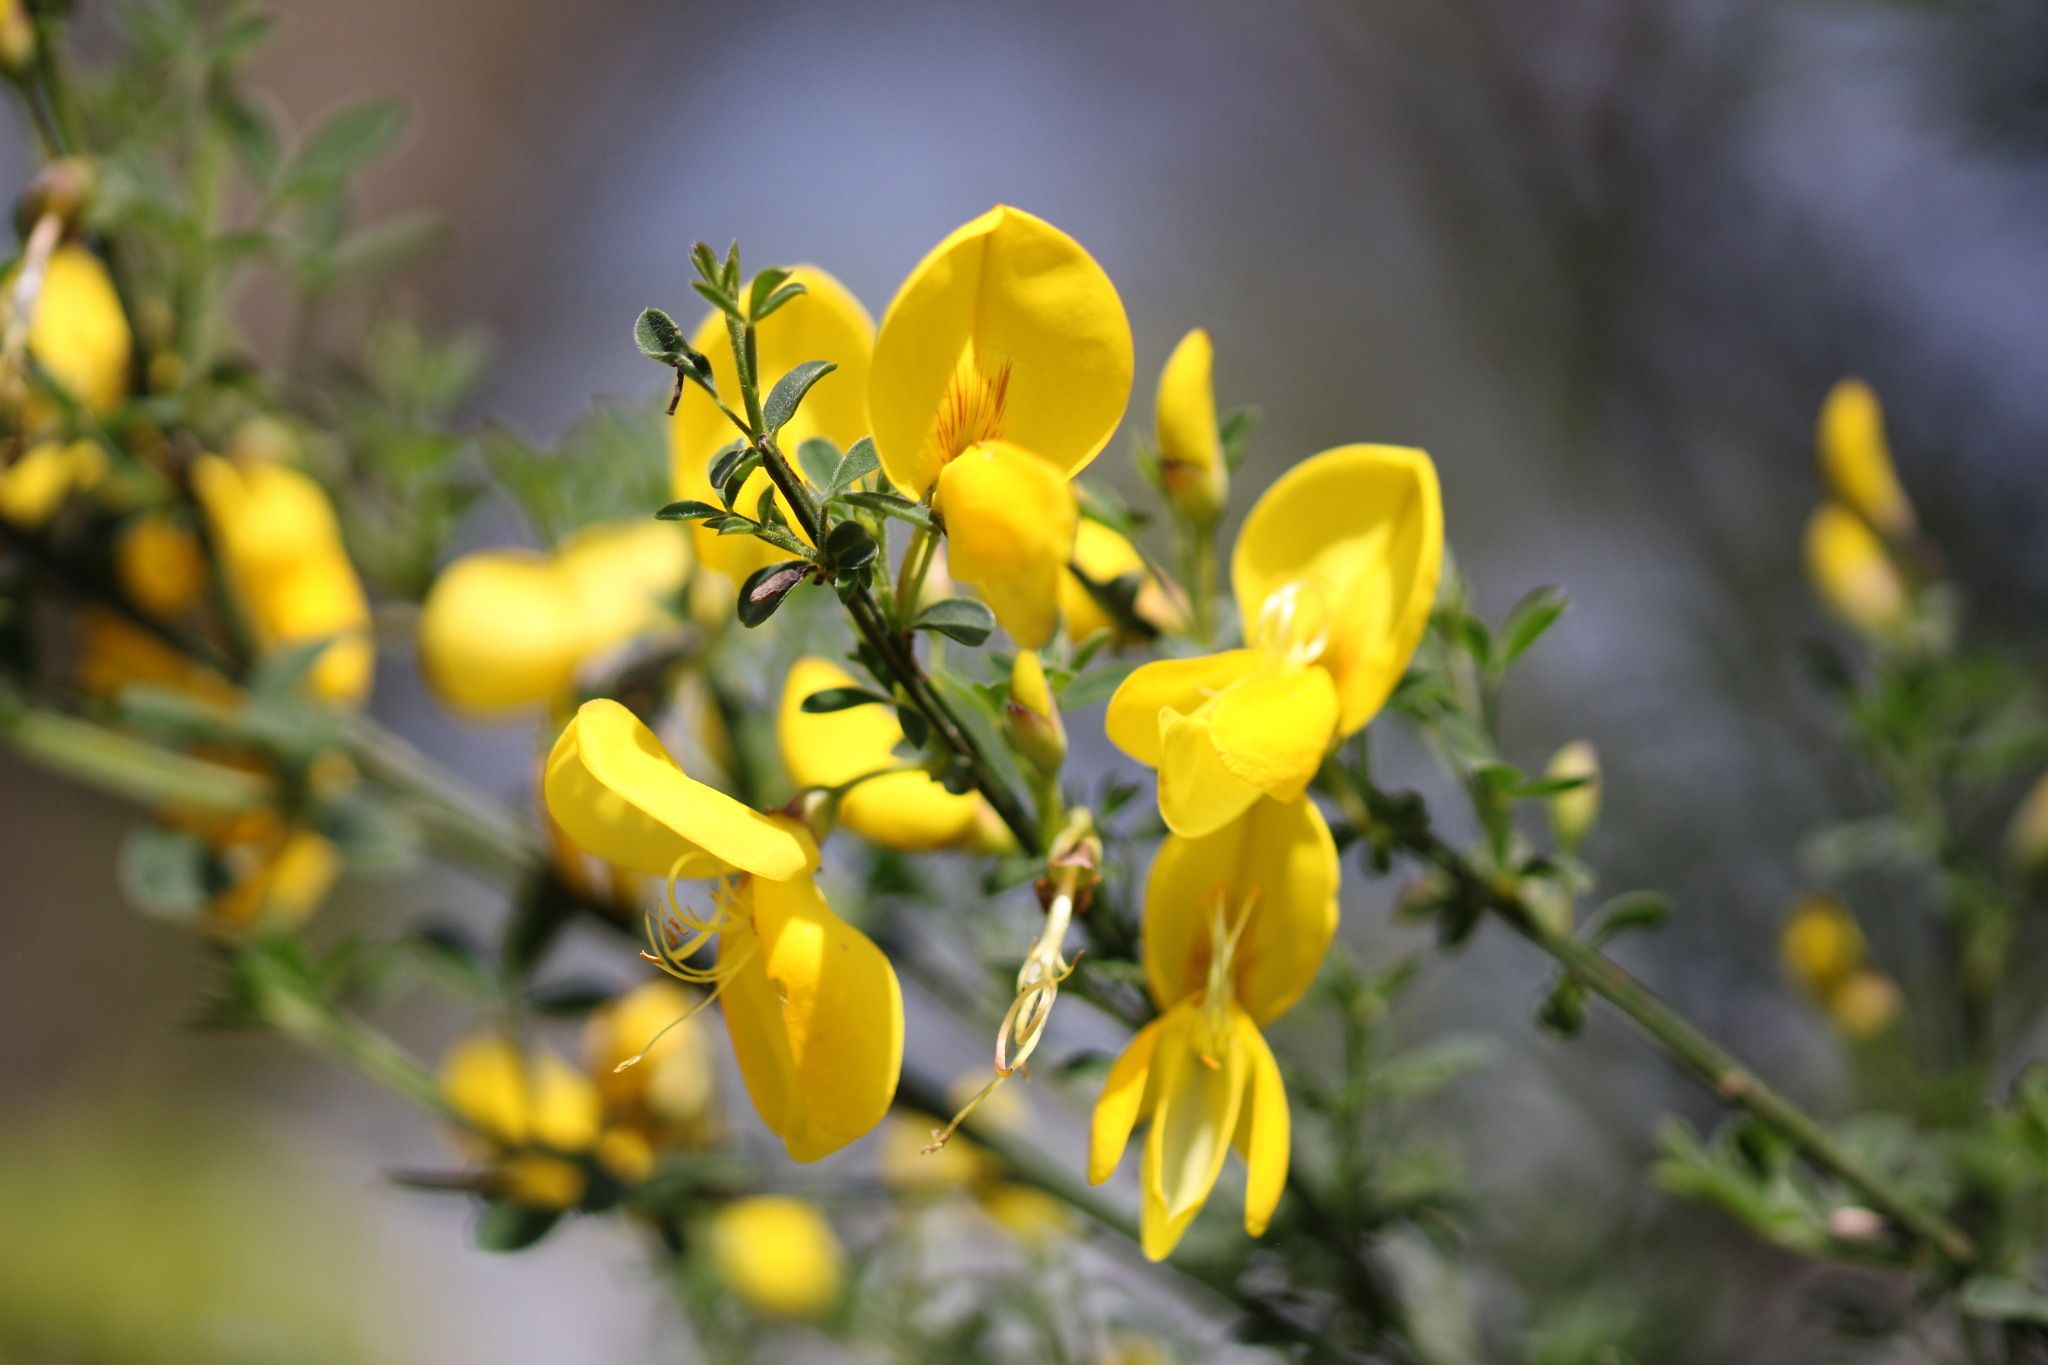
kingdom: Plantae
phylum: Tracheophyta
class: Magnoliopsida
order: Fabales
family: Fabaceae
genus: Cytisus
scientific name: Cytisus scoparius
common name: Scotch broom
